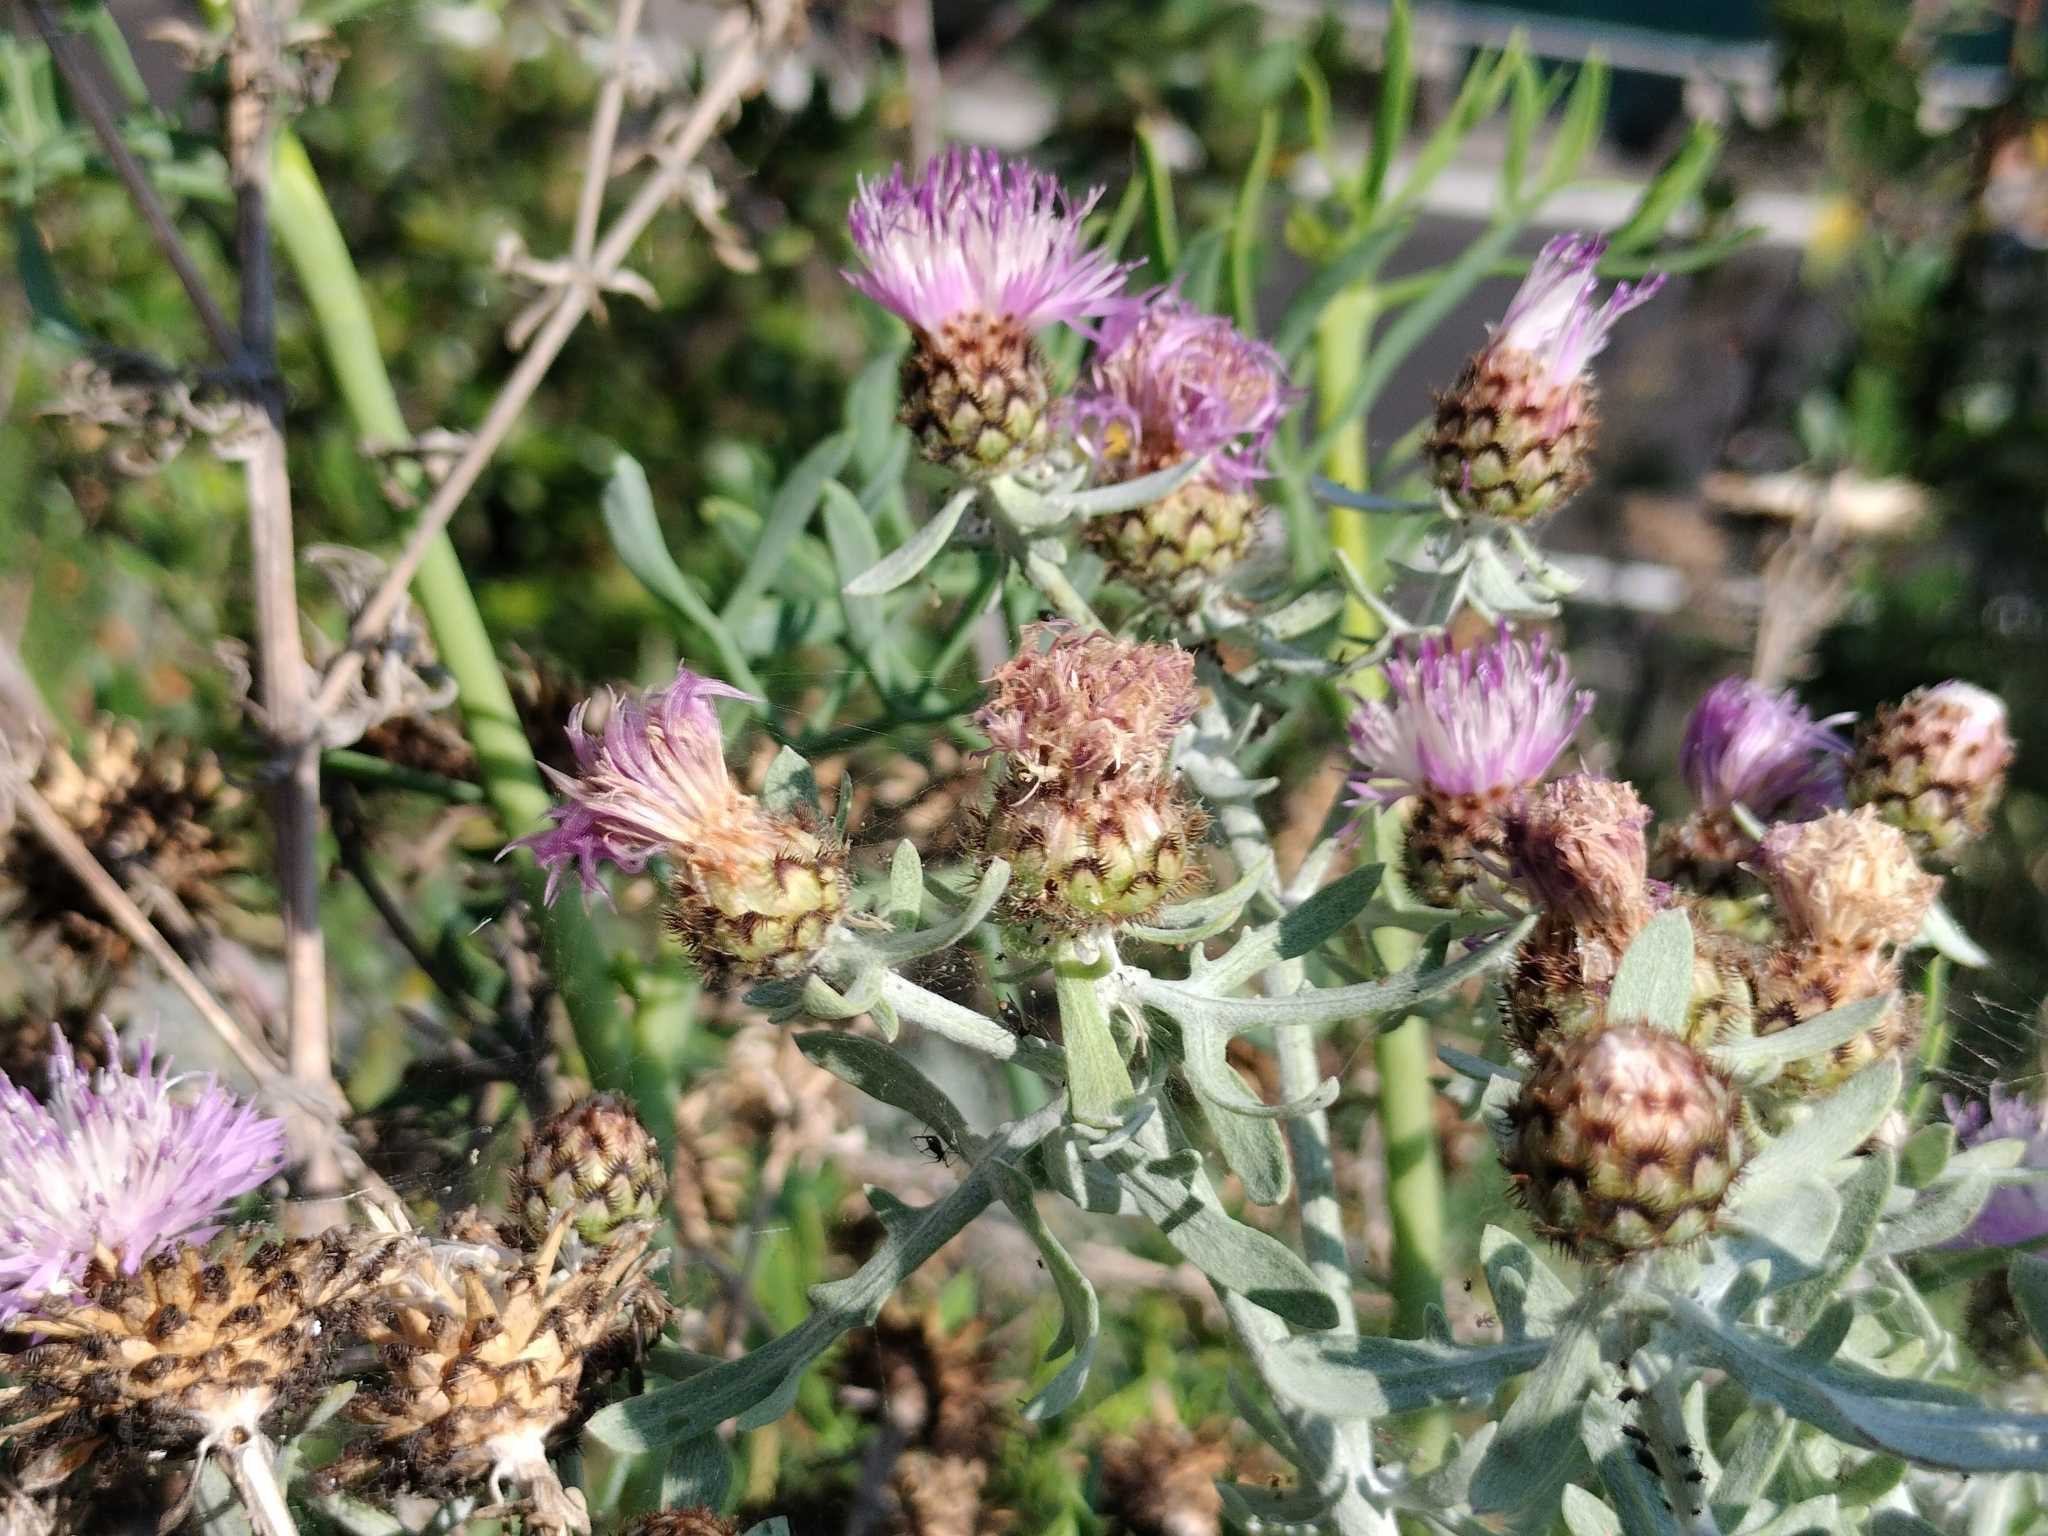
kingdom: Plantae
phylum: Tracheophyta
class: Magnoliopsida
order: Asterales
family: Asteraceae
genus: Centaurea
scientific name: Centaurea cineraria
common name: Dusty miller
